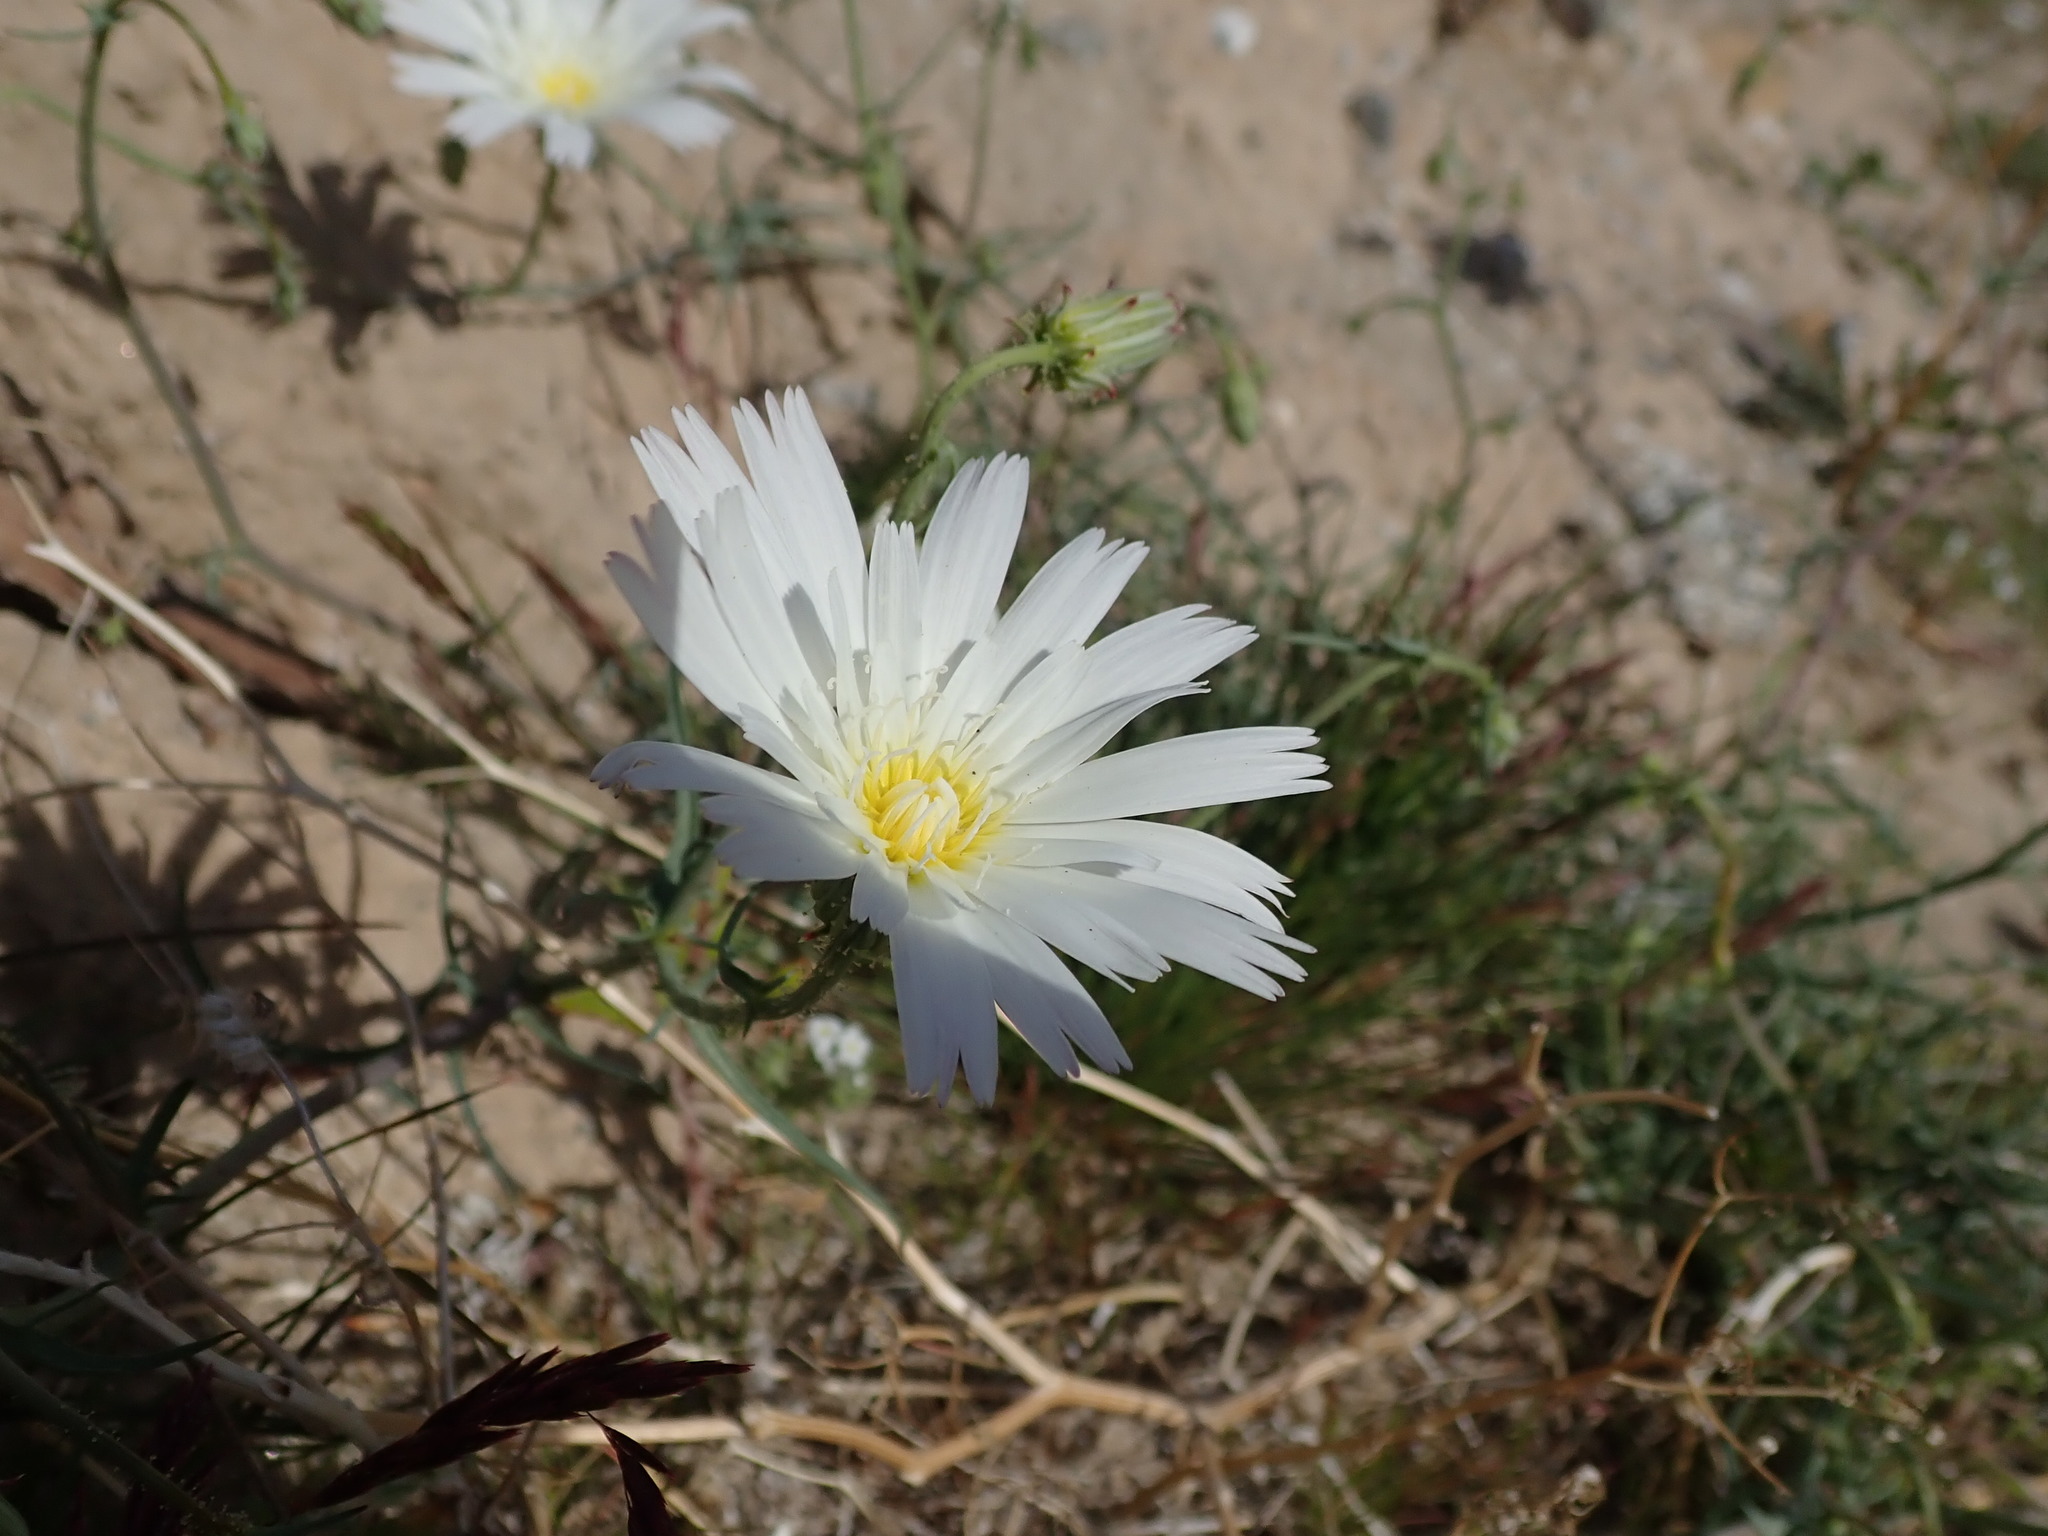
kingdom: Plantae
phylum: Tracheophyta
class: Magnoliopsida
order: Asterales
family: Asteraceae
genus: Calycoseris
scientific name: Calycoseris wrightii
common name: White tackstem
